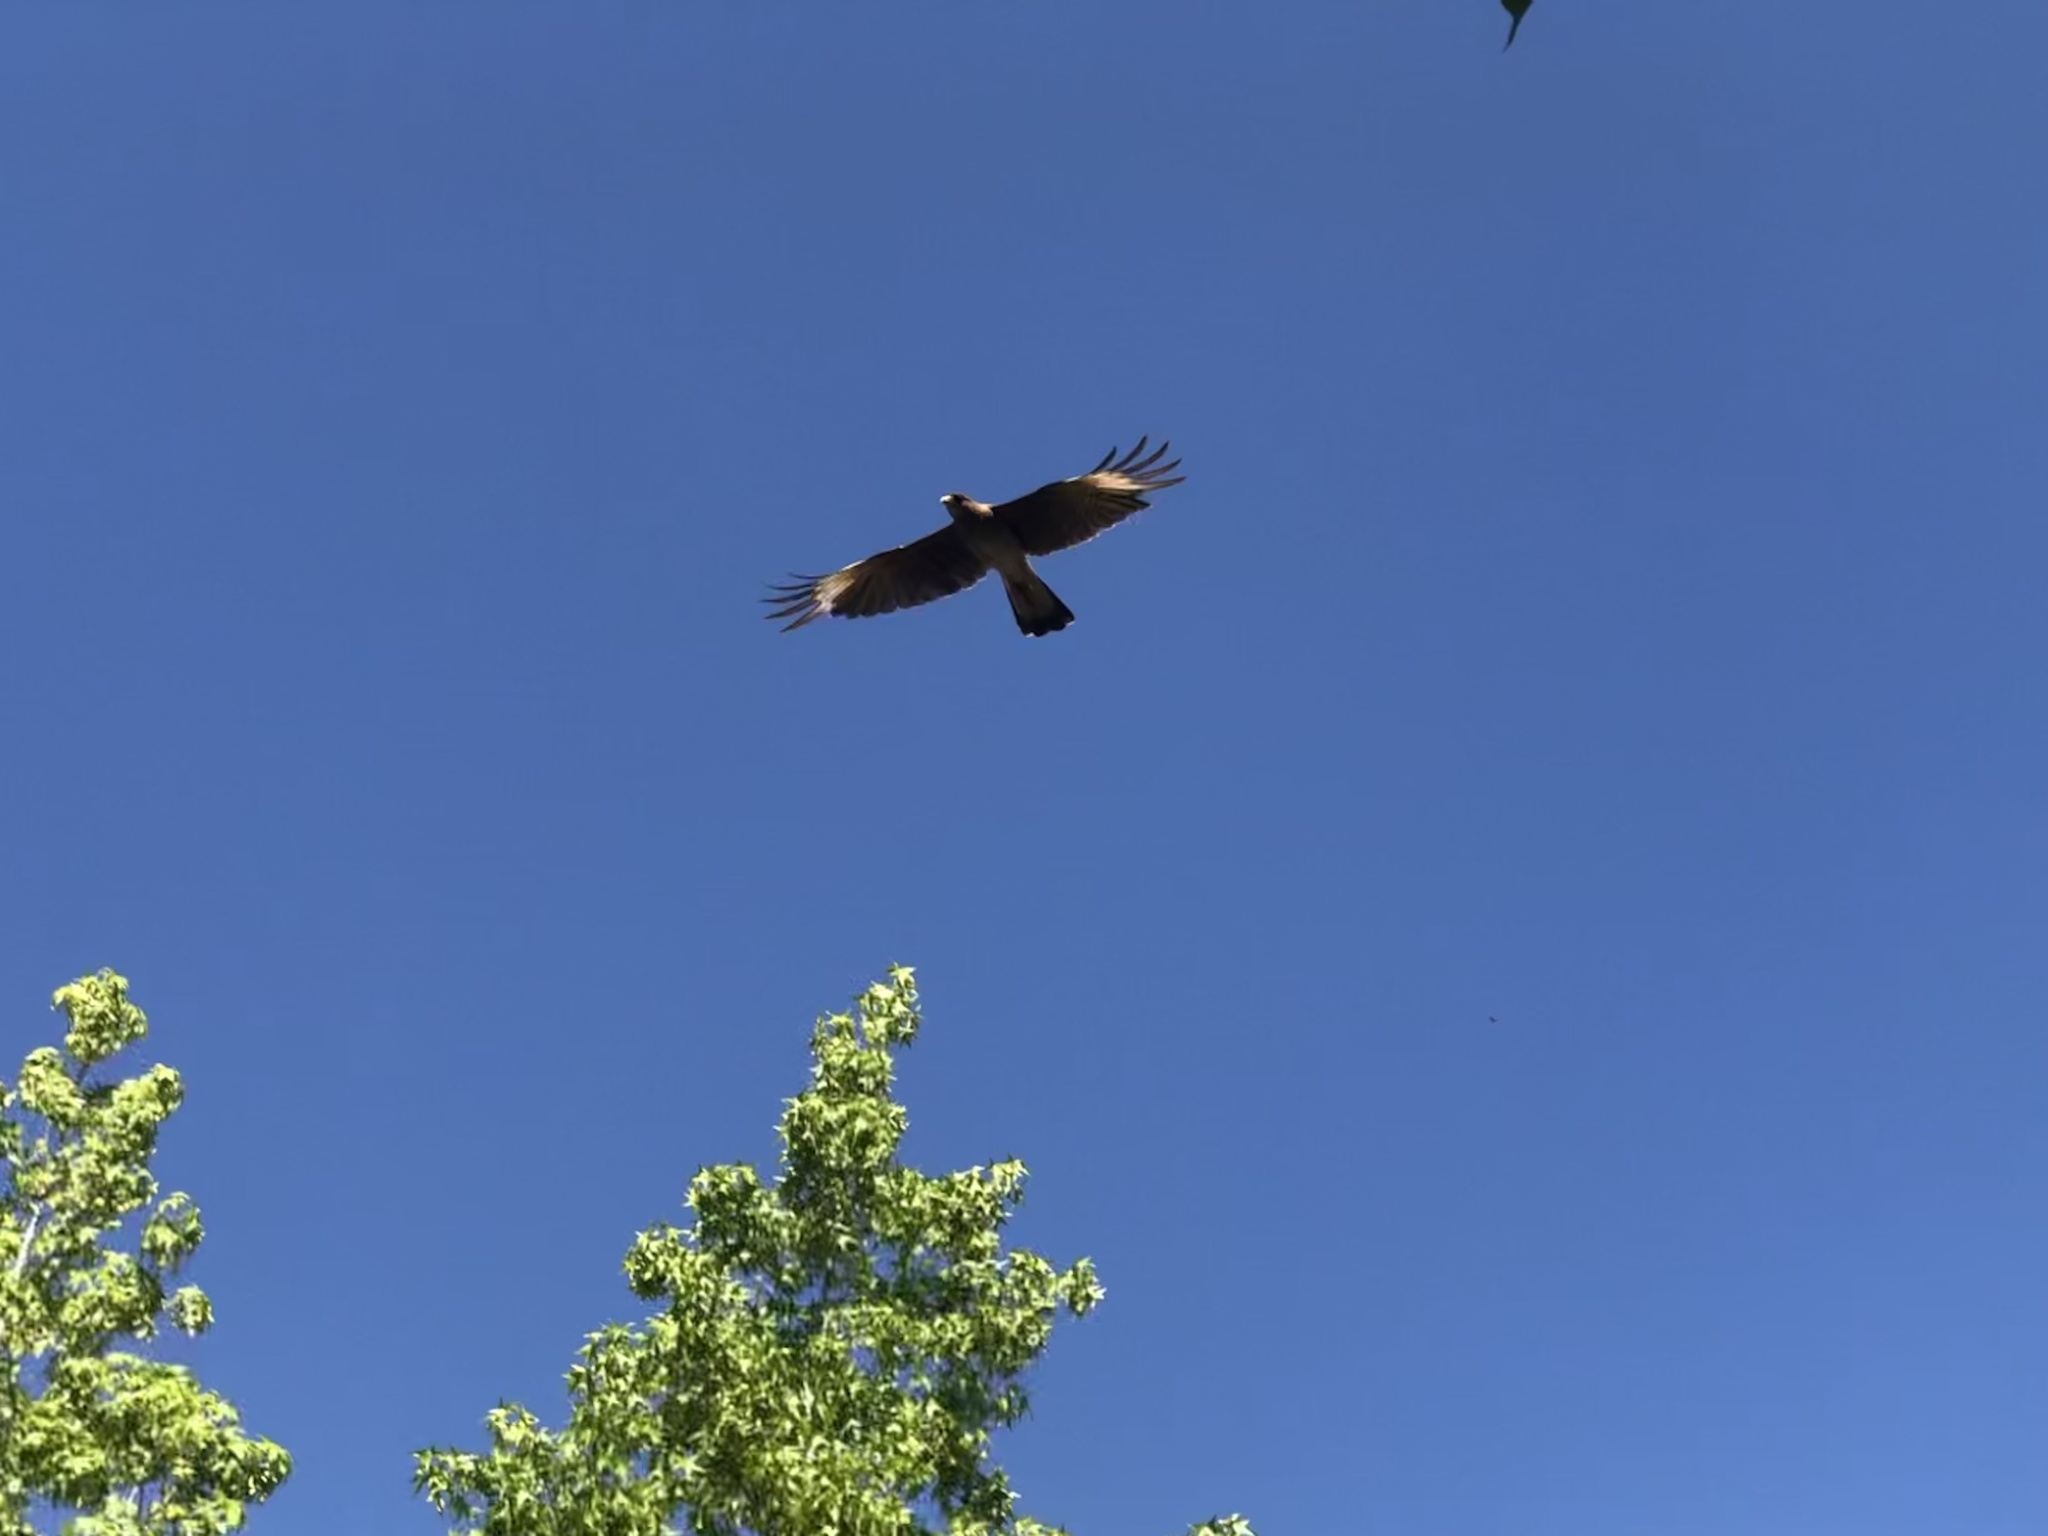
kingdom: Animalia
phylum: Chordata
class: Aves
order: Falconiformes
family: Falconidae
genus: Daptrius
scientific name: Daptrius
